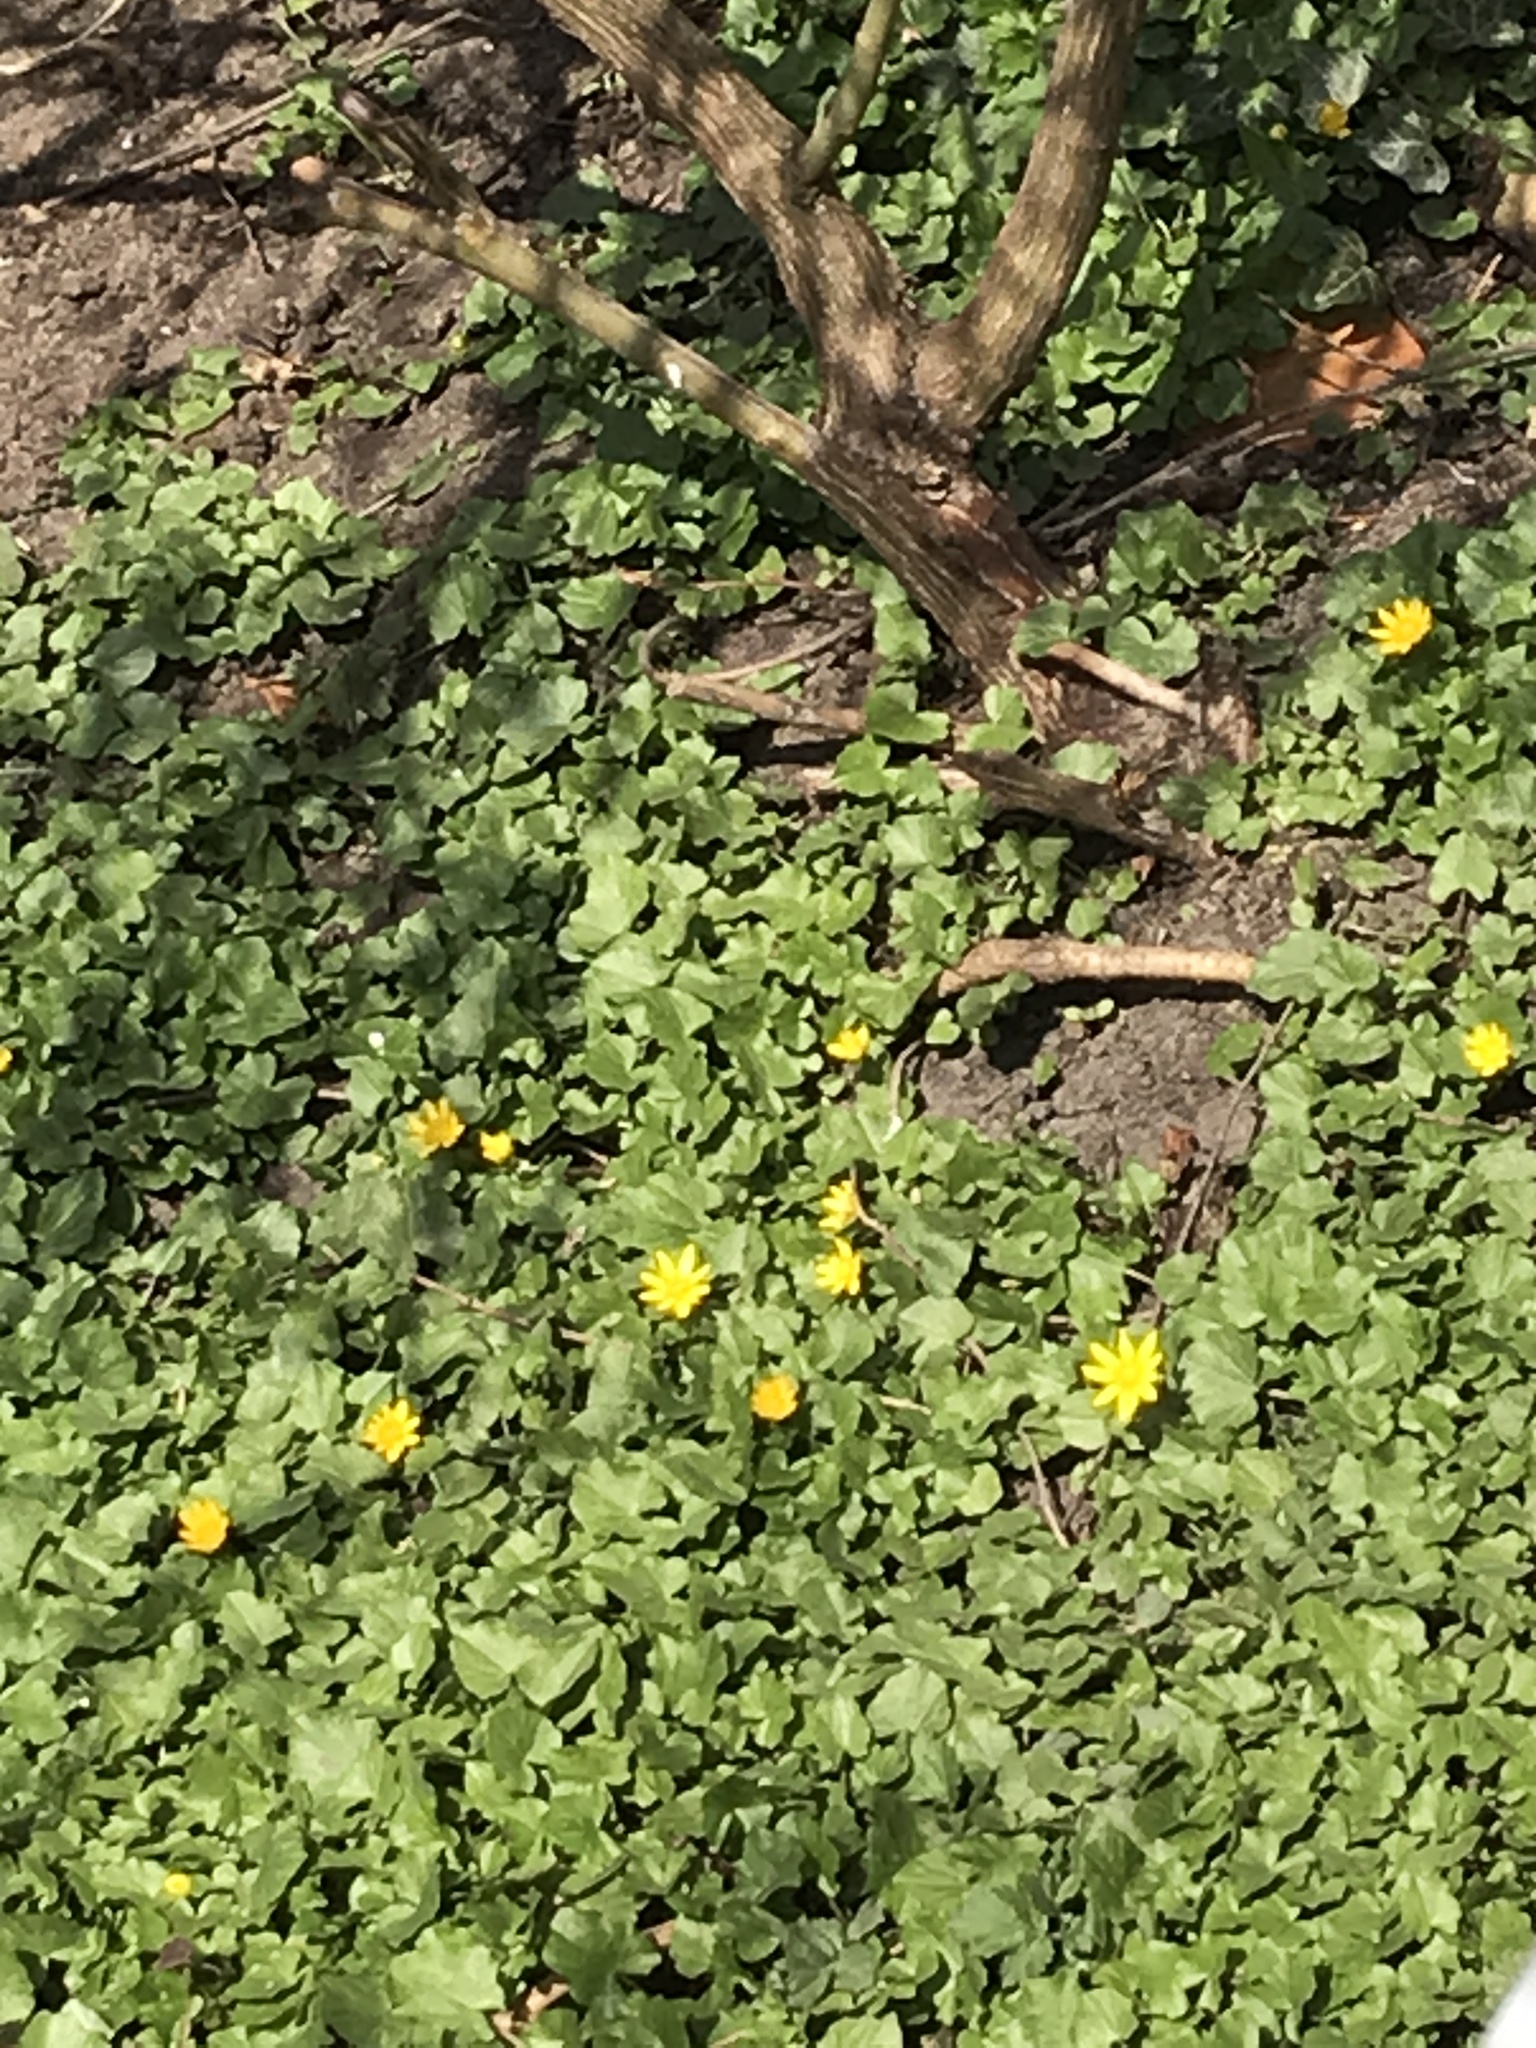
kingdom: Plantae
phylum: Tracheophyta
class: Magnoliopsida
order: Ranunculales
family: Ranunculaceae
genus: Ficaria
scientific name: Ficaria verna
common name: Lesser celandine
